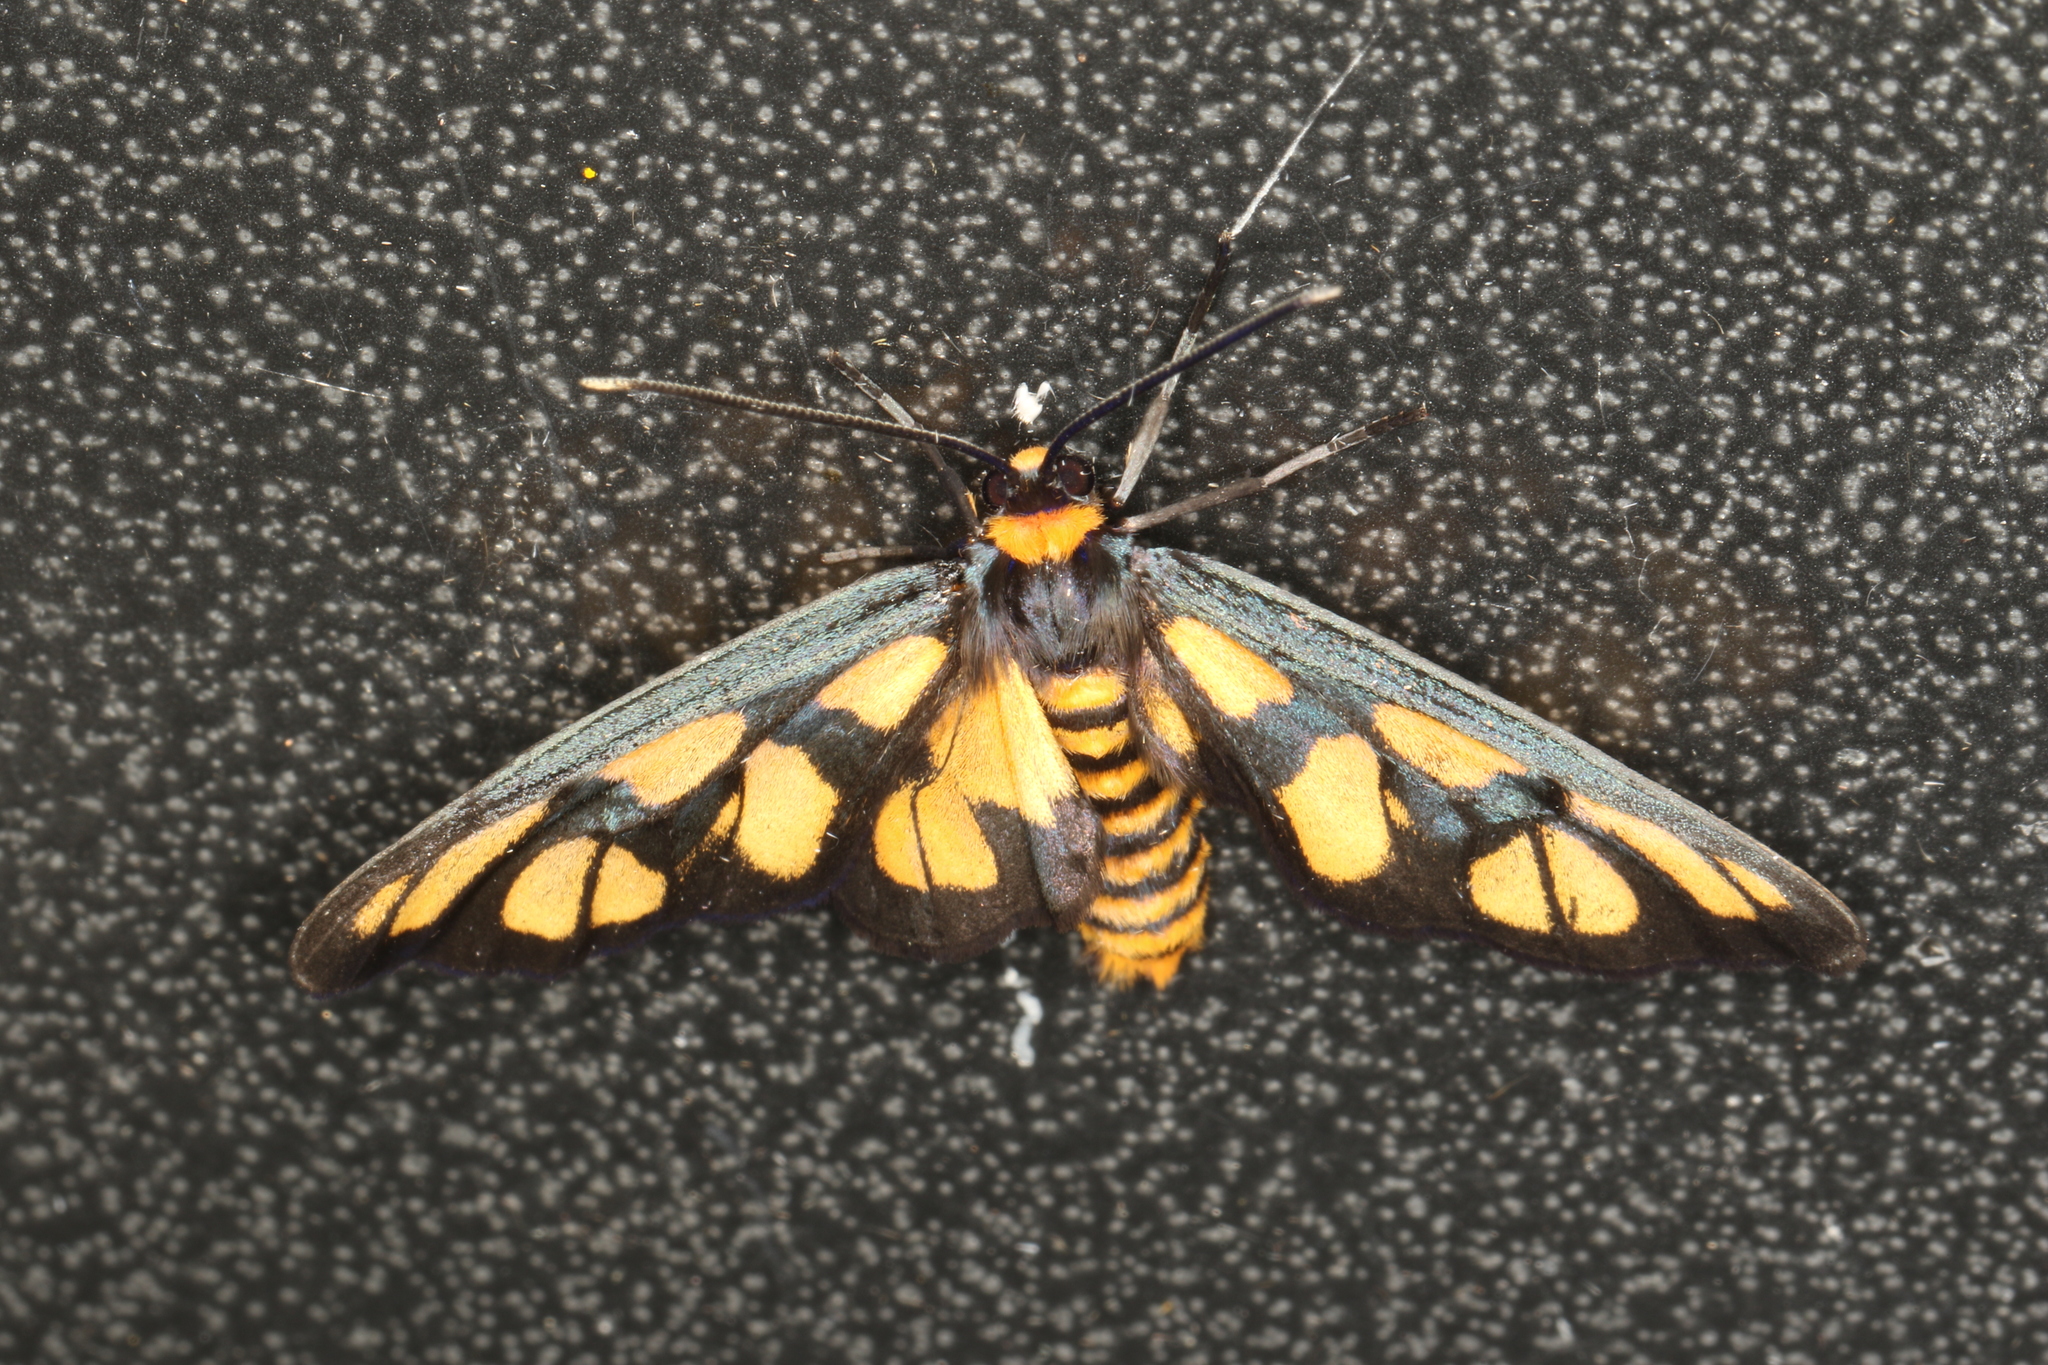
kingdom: Animalia
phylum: Arthropoda
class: Insecta
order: Lepidoptera
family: Erebidae
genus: Amata
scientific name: Amata trigonophora
